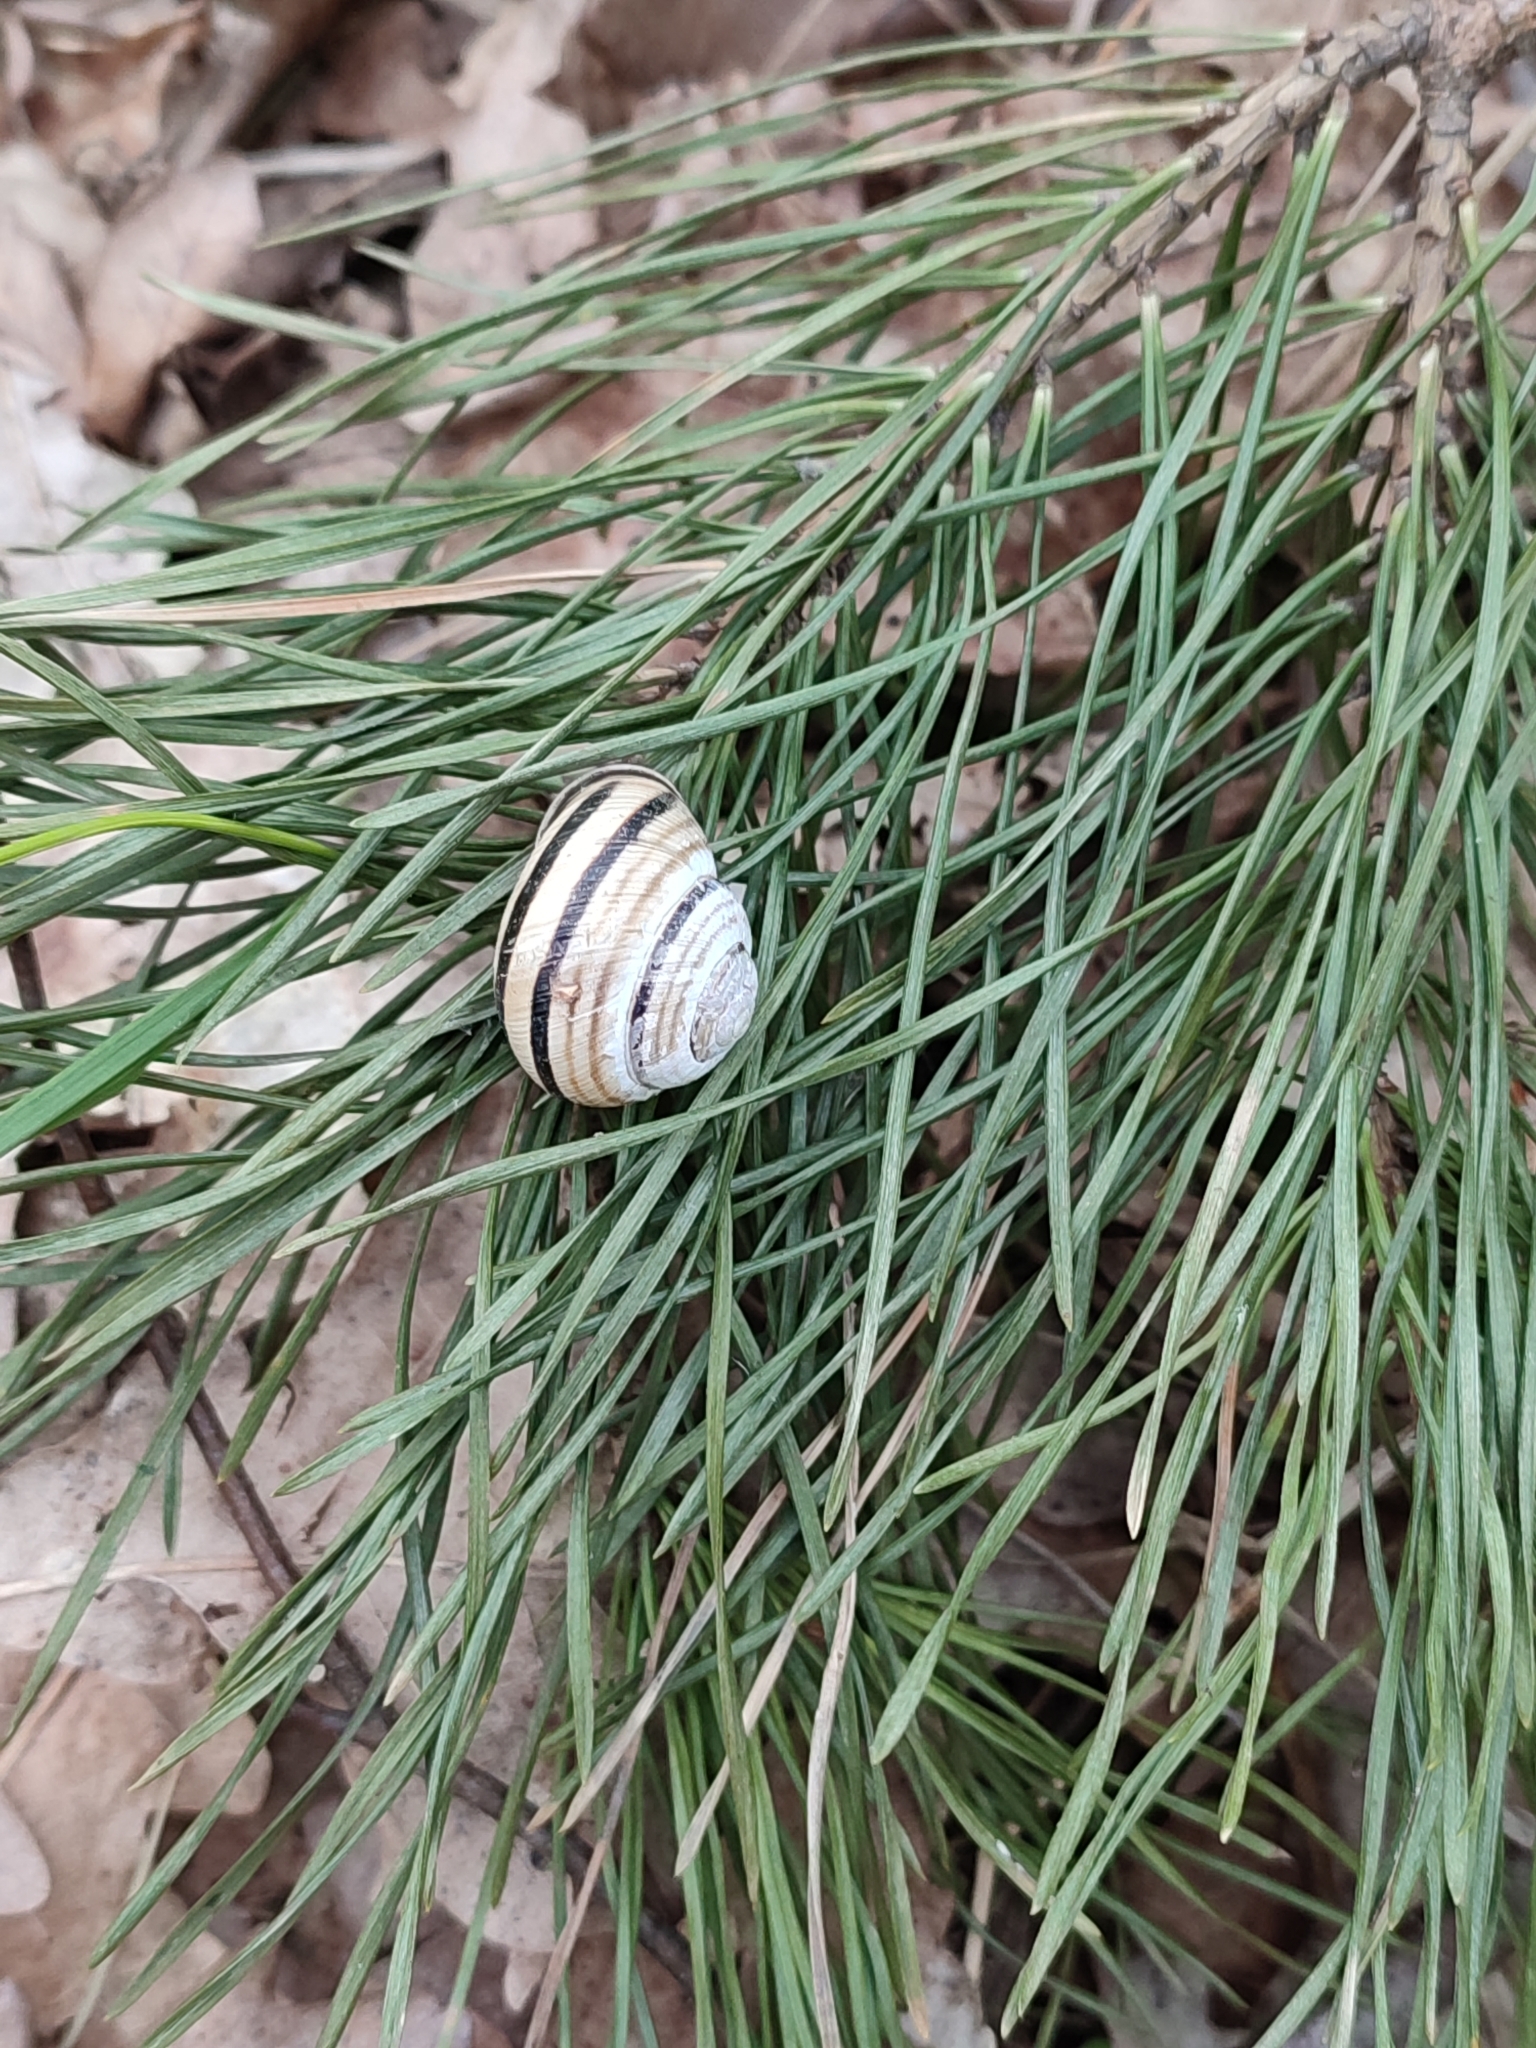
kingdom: Animalia
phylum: Mollusca
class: Gastropoda
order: Stylommatophora
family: Helicidae
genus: Caucasotachea
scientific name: Caucasotachea vindobonensis
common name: European helicid land snail
